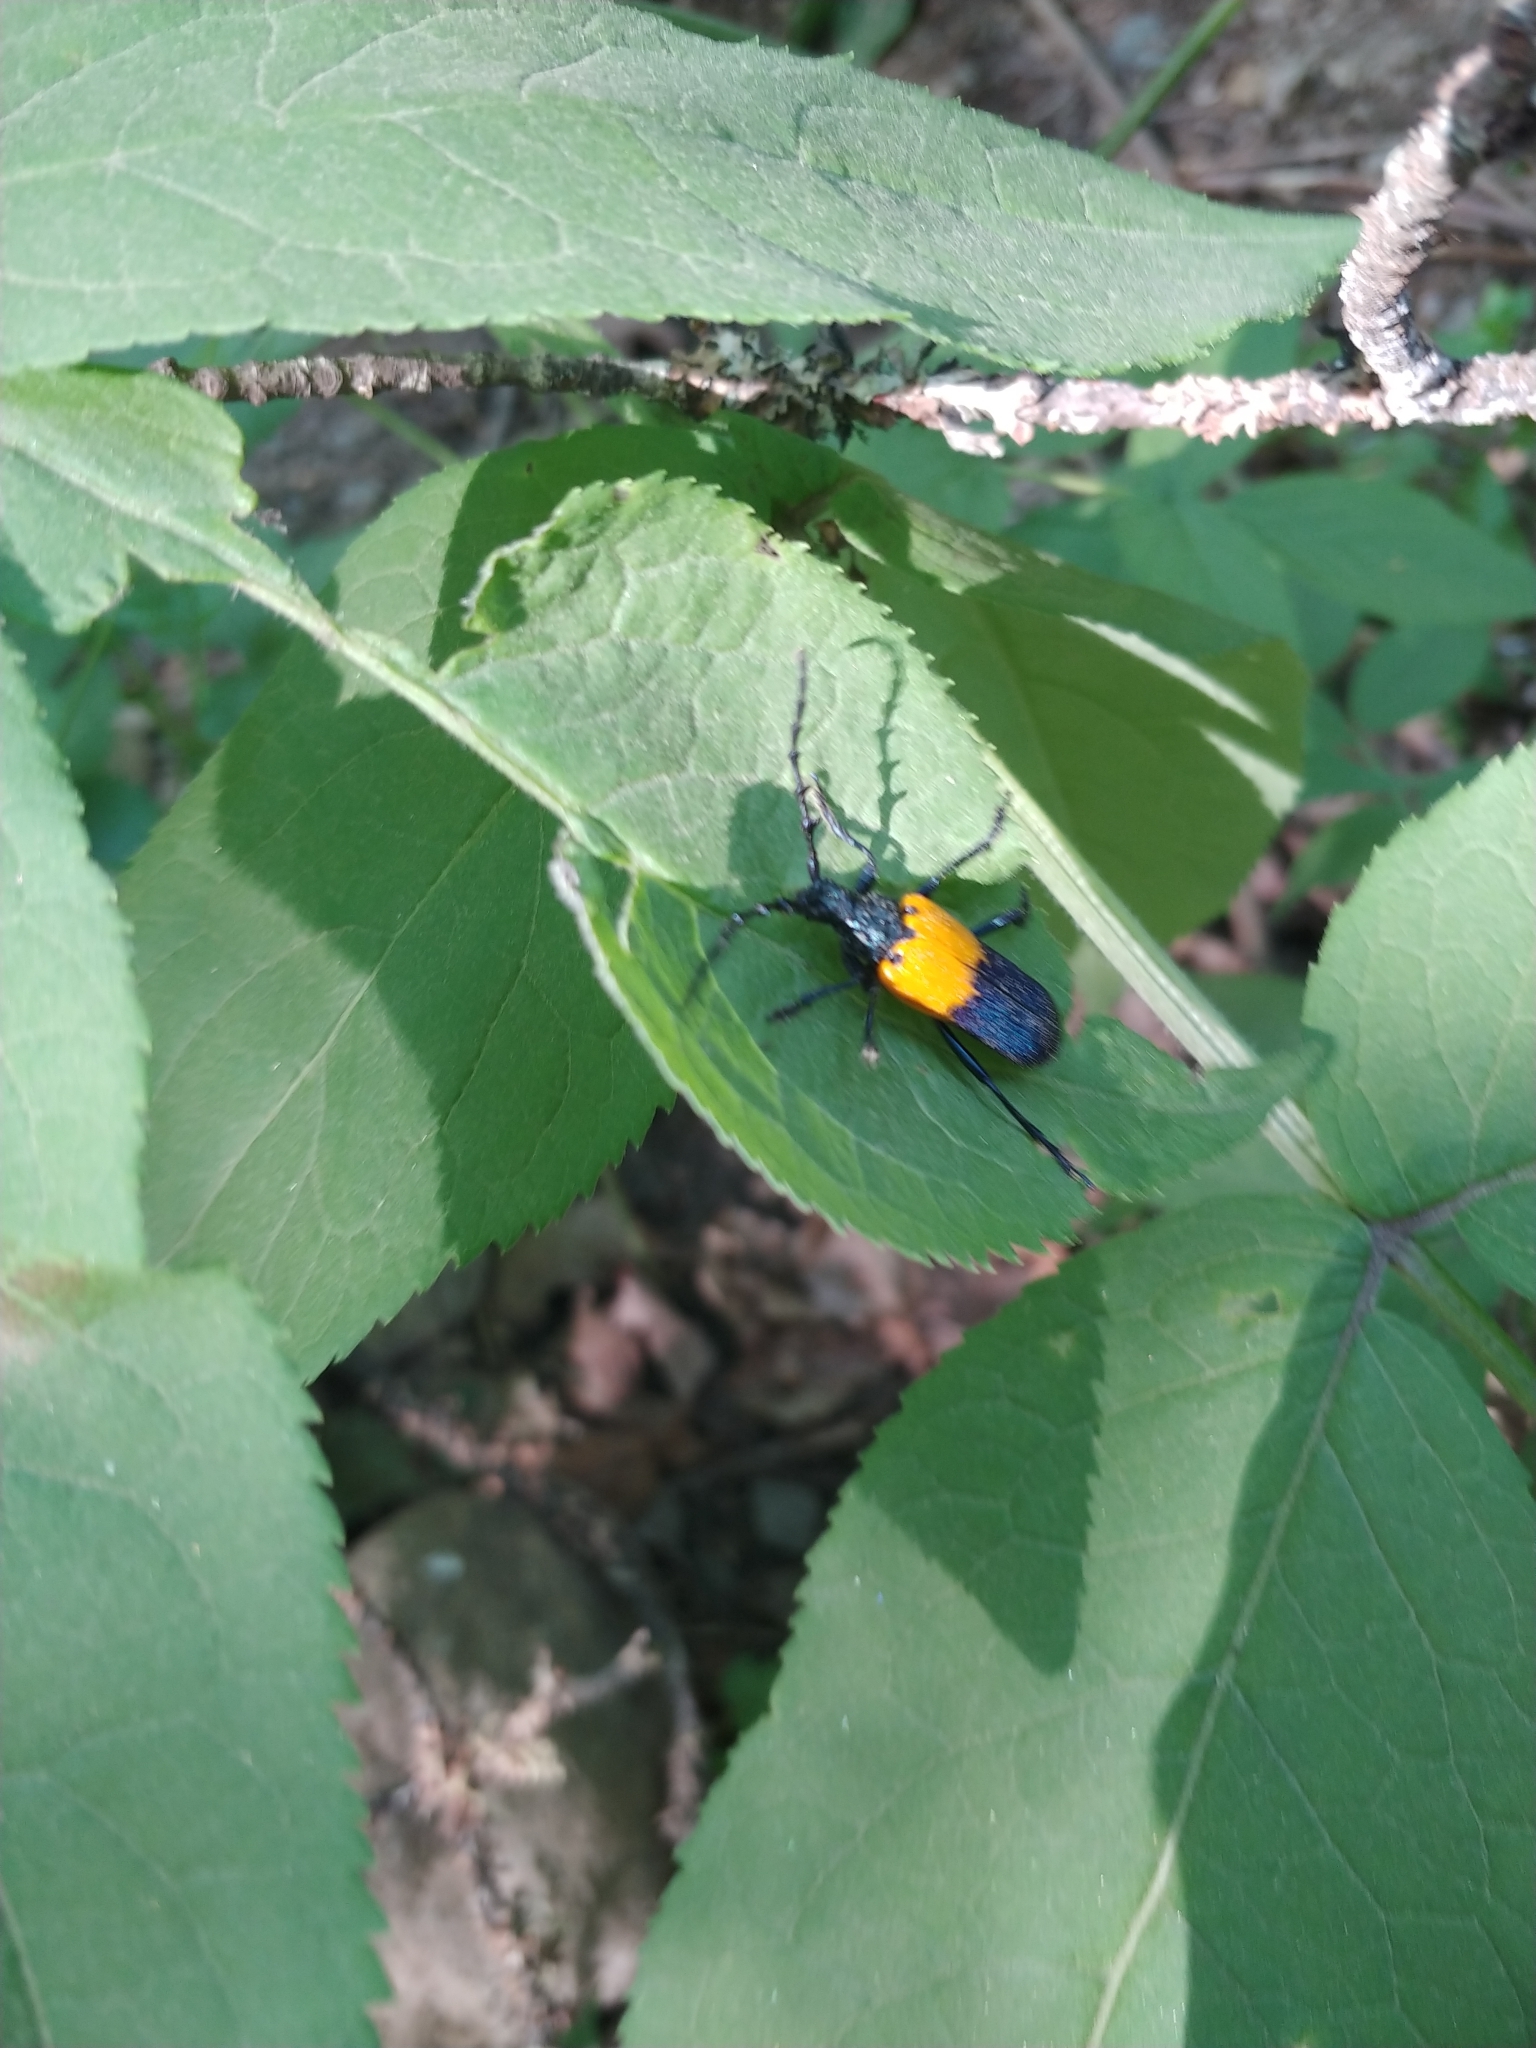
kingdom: Animalia
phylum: Arthropoda
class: Insecta
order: Coleoptera
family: Cerambycidae
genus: Desmocerus
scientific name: Desmocerus palliatus
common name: Eastern elderberry borer
